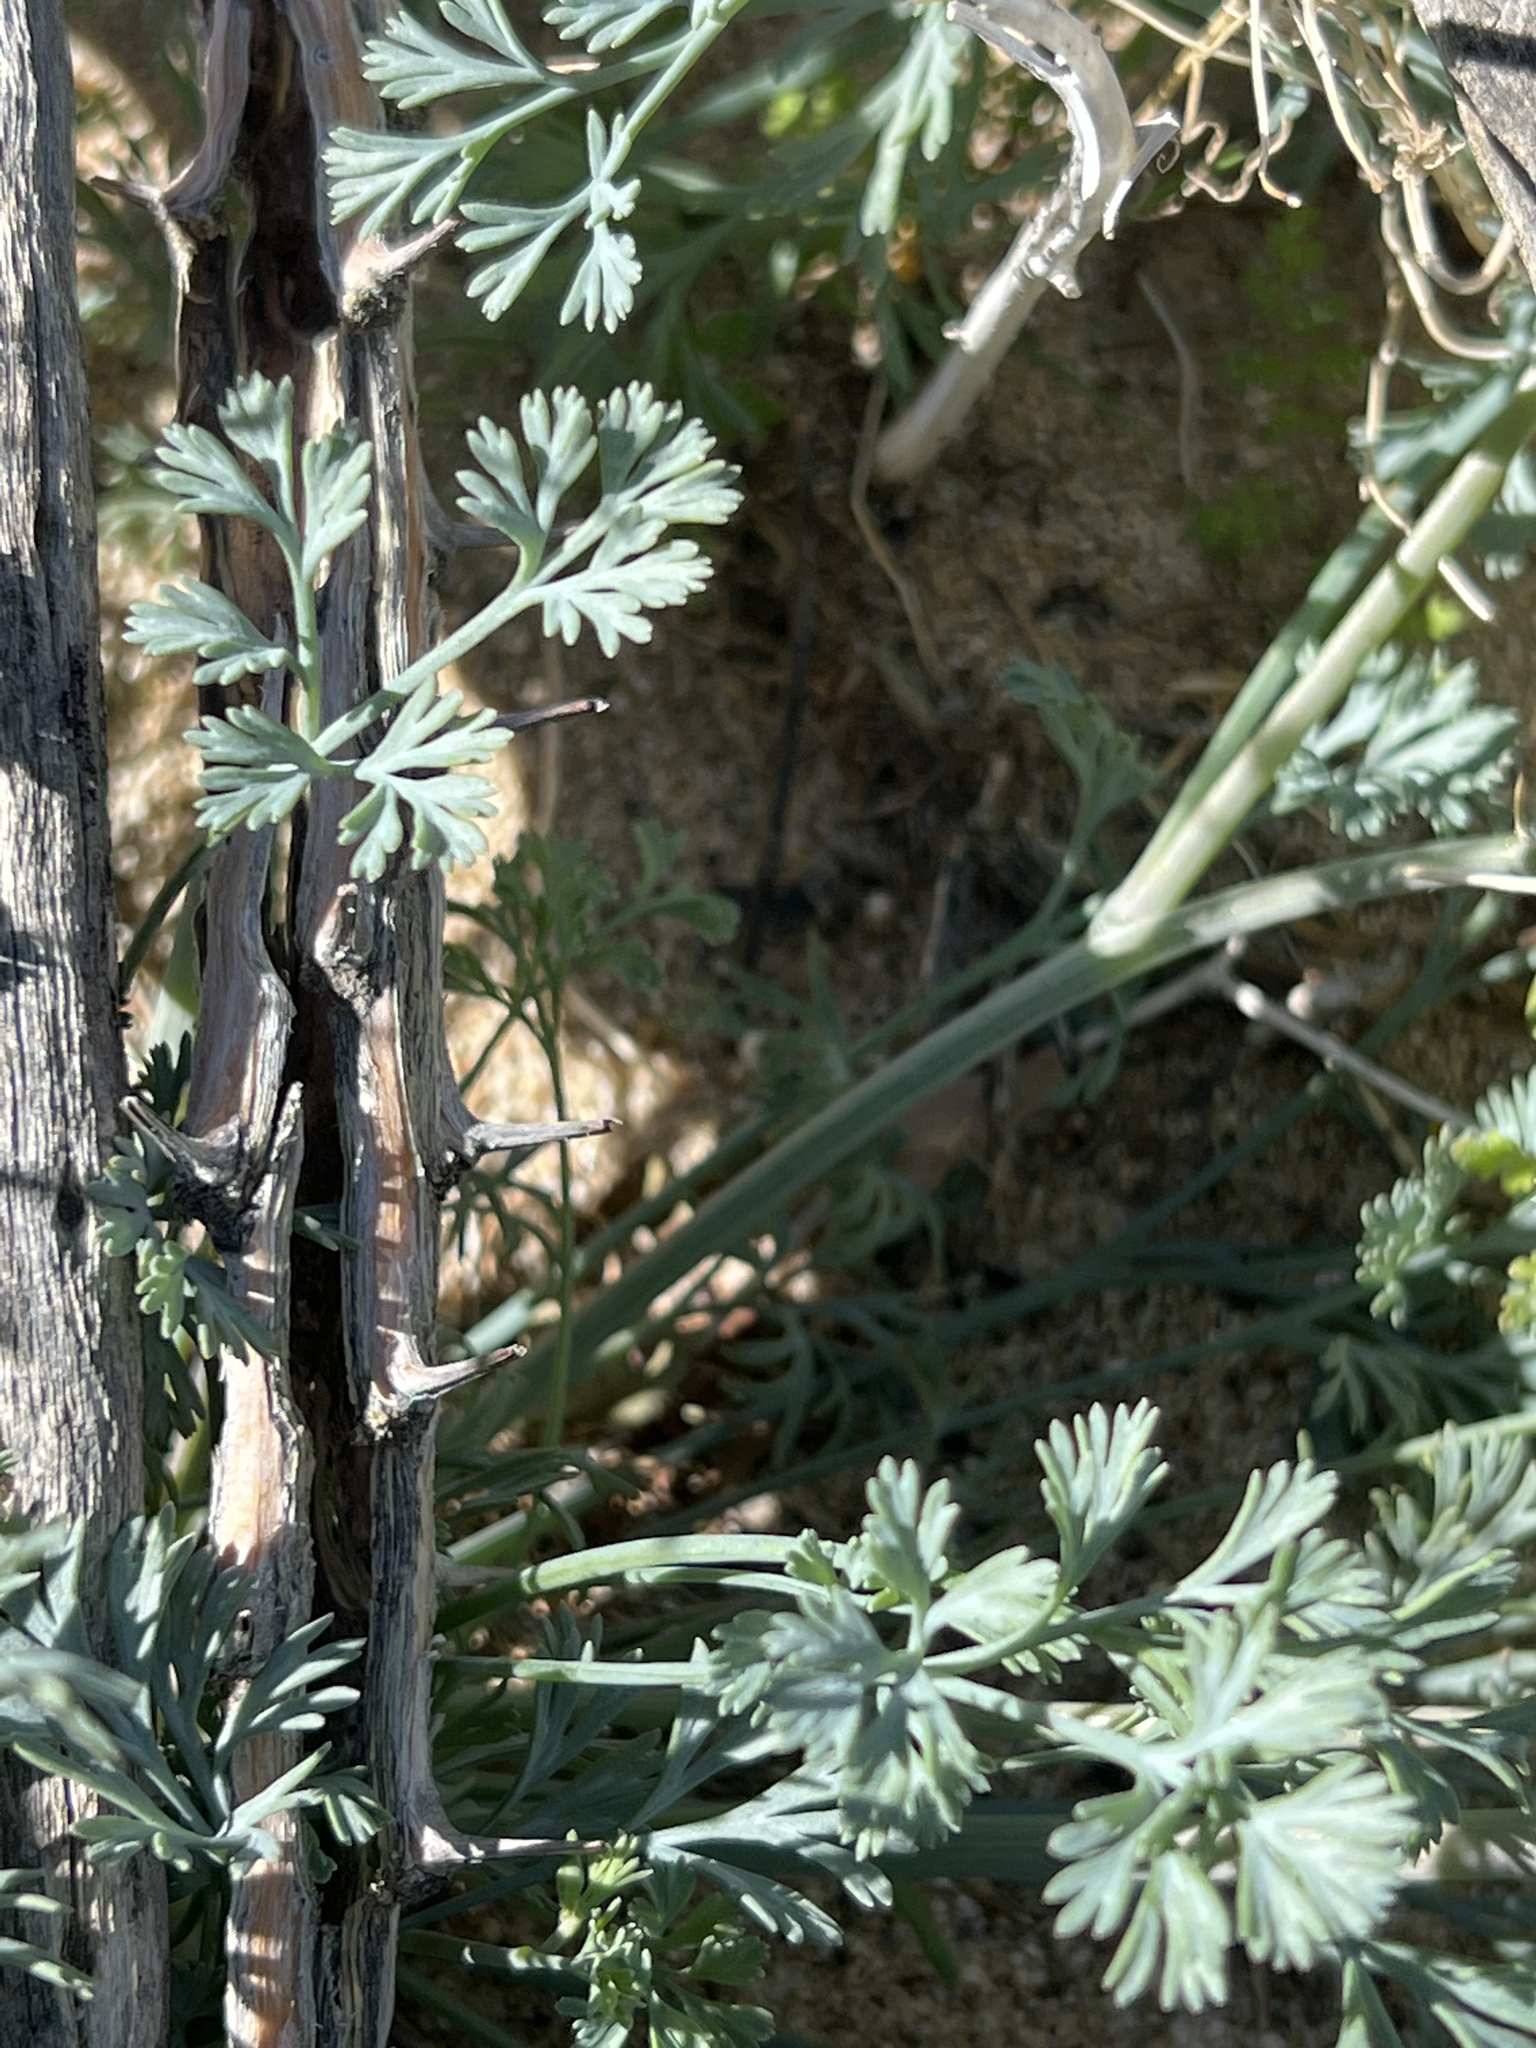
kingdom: Plantae
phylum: Tracheophyta
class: Magnoliopsida
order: Ranunculales
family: Papaveraceae
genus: Eschscholzia
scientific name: Eschscholzia minutiflora
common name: Small-flower california-poppy
